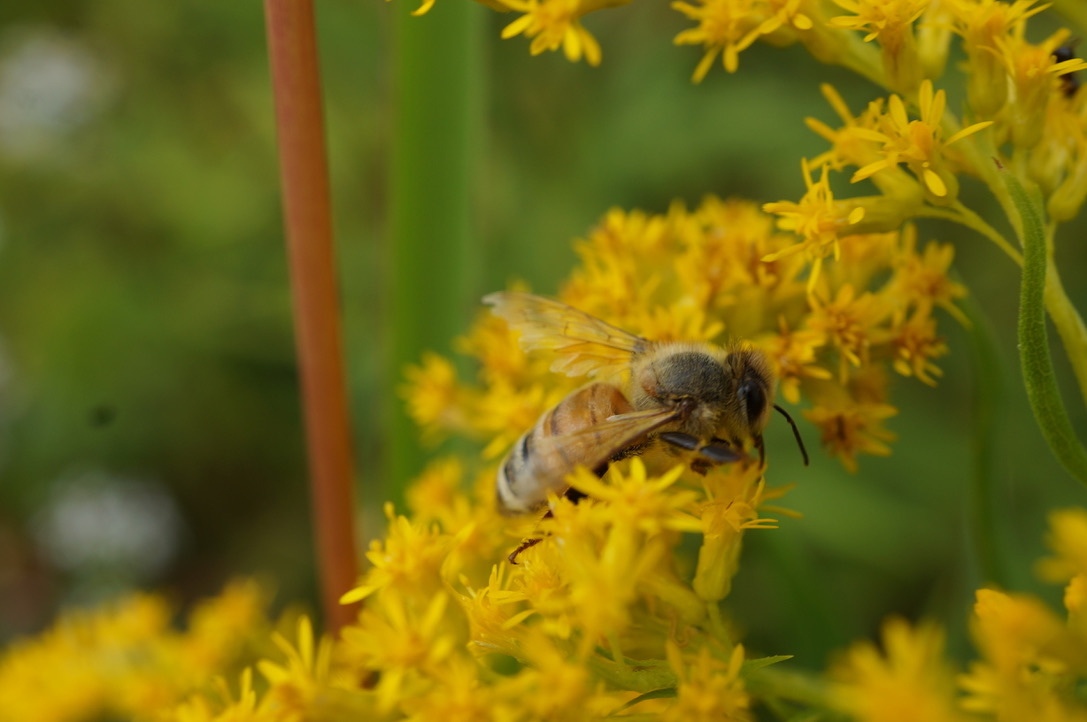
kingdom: Animalia
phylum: Arthropoda
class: Insecta
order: Hymenoptera
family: Apidae
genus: Apis
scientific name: Apis mellifera
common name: Honey bee
